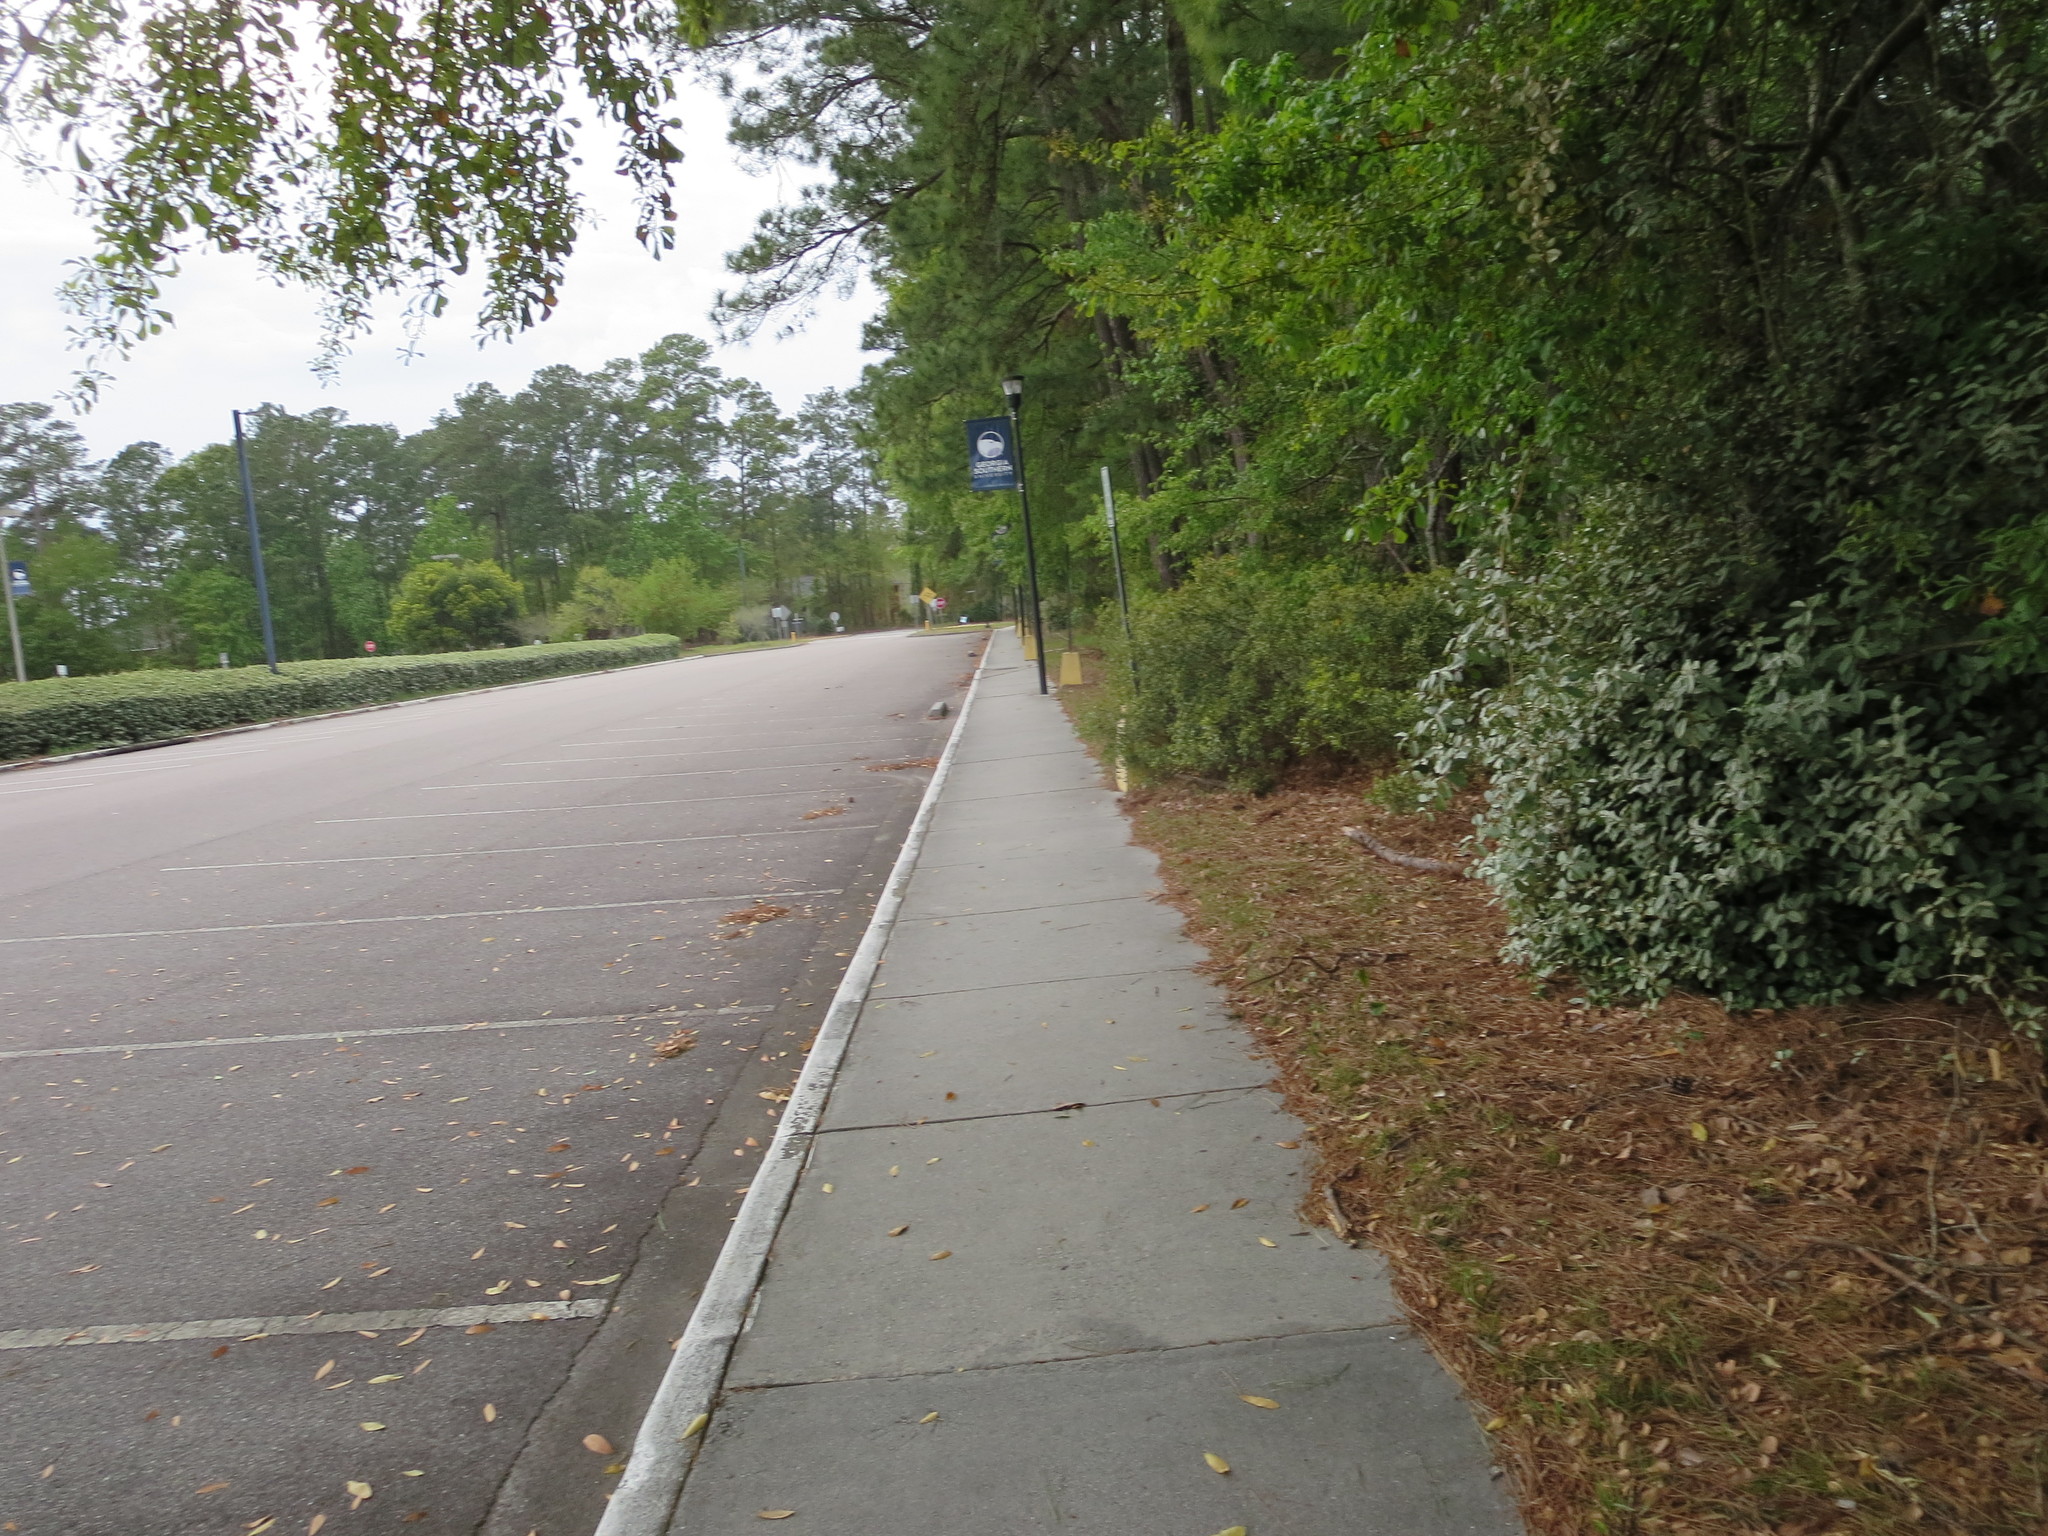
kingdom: Plantae
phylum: Tracheophyta
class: Magnoliopsida
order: Rosales
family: Elaeagnaceae
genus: Elaeagnus
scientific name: Elaeagnus pungens
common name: Spiny oleaster
